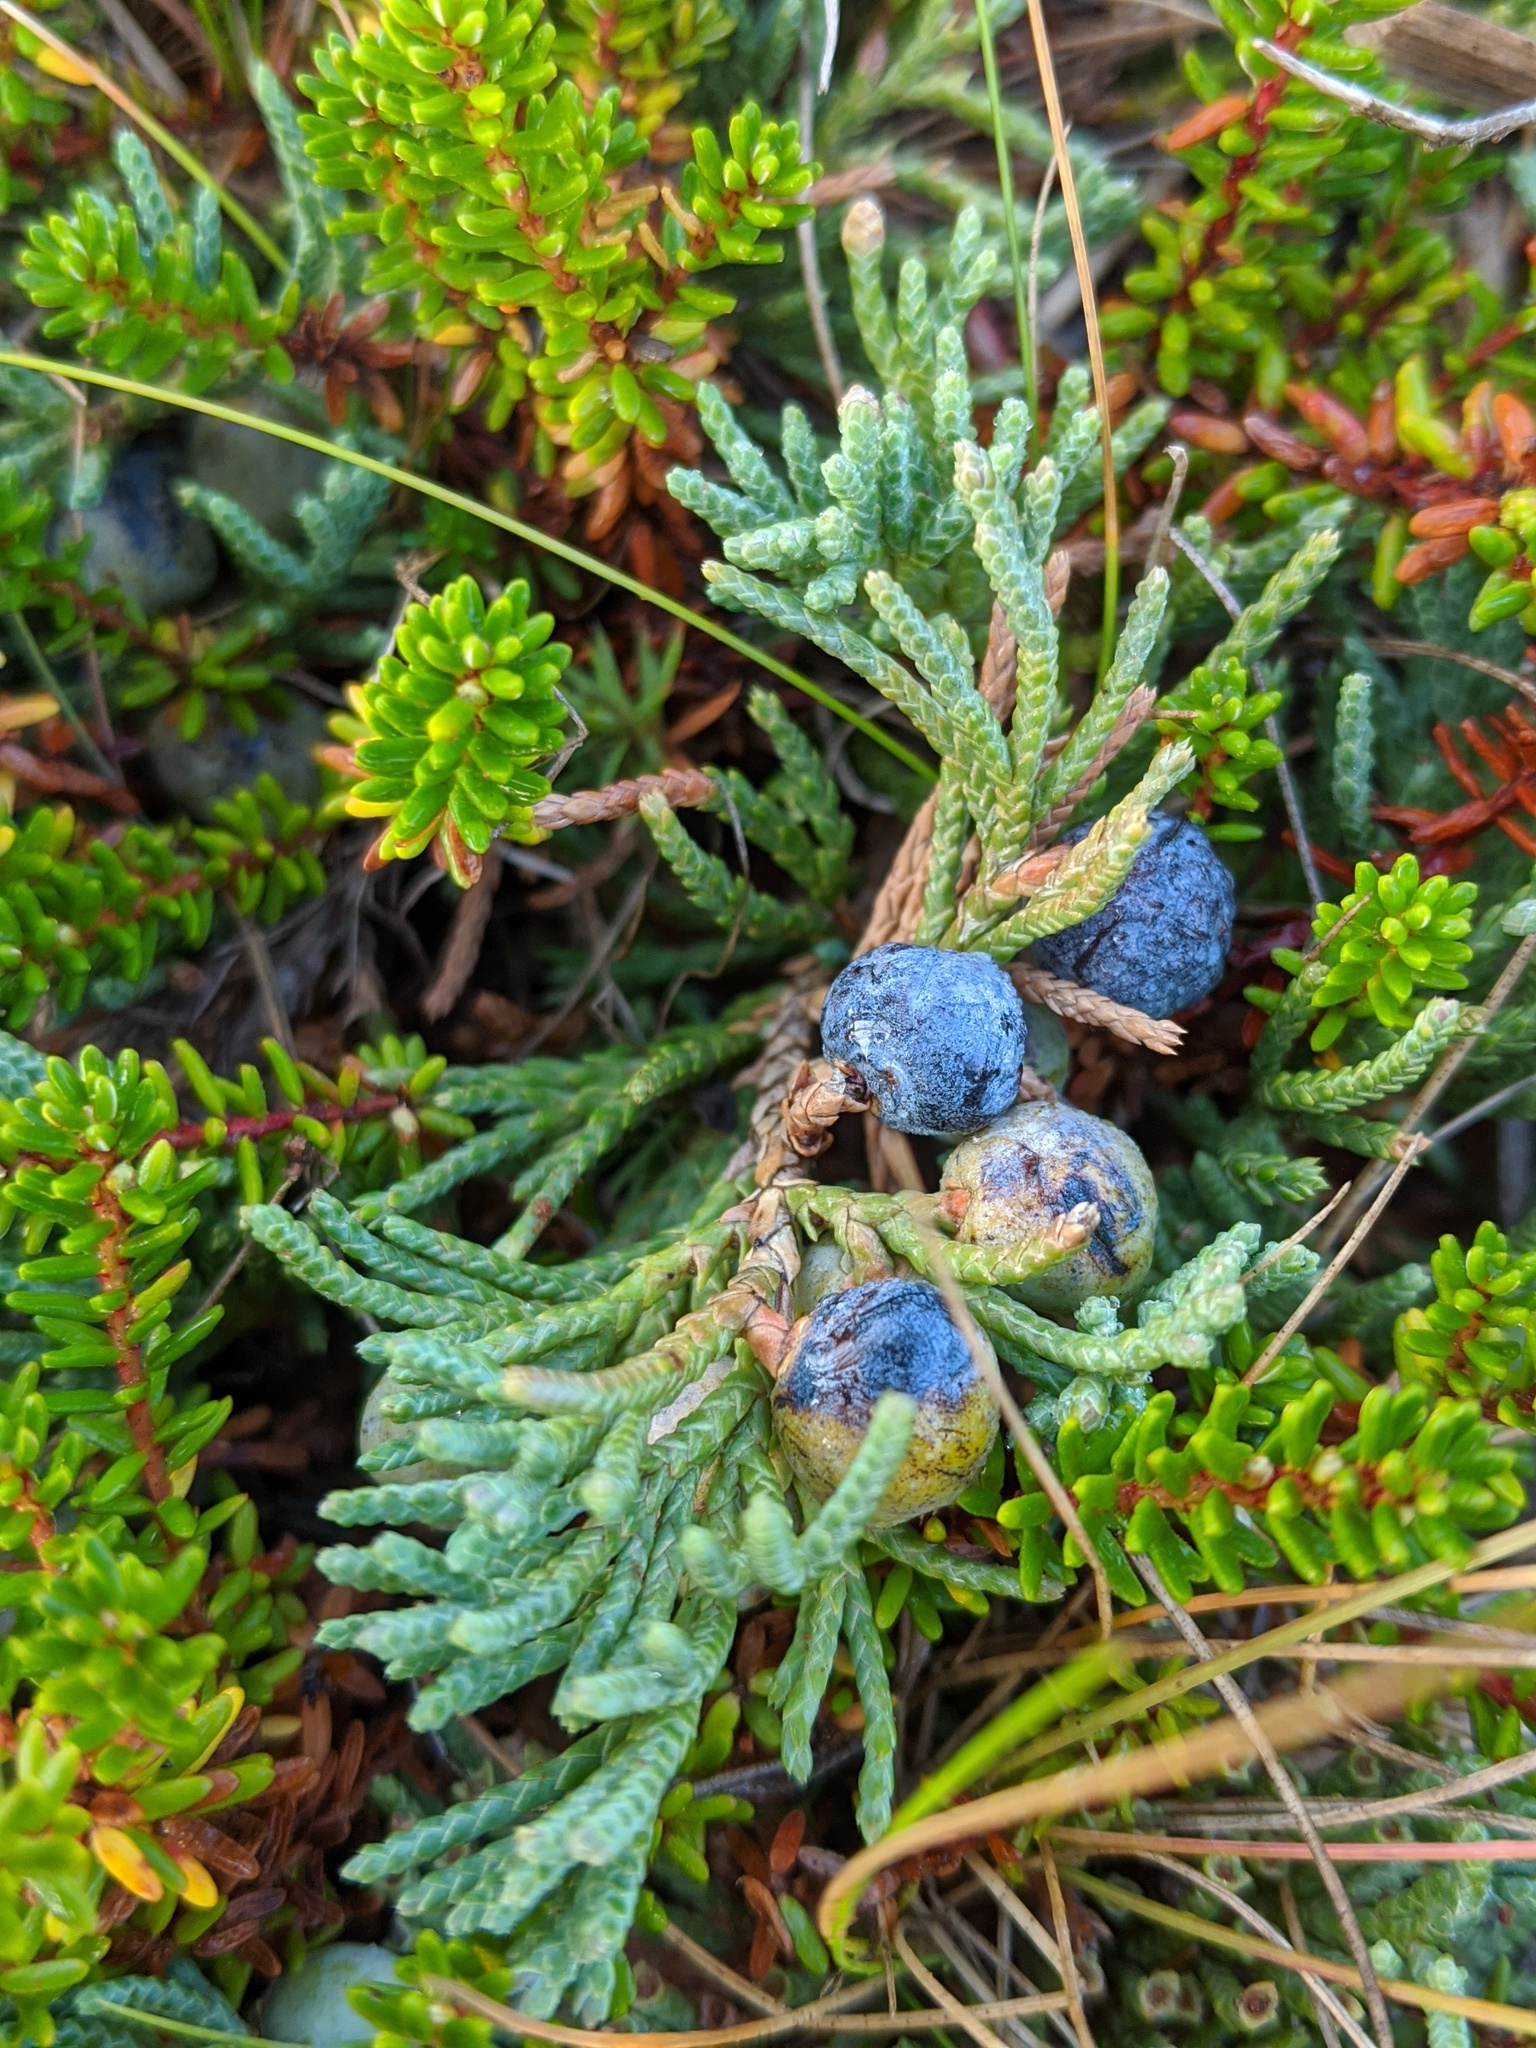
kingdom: Plantae
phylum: Tracheophyta
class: Pinopsida
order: Pinales
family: Cupressaceae
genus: Juniperus
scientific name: Juniperus horizontalis
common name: Creeping juniper
